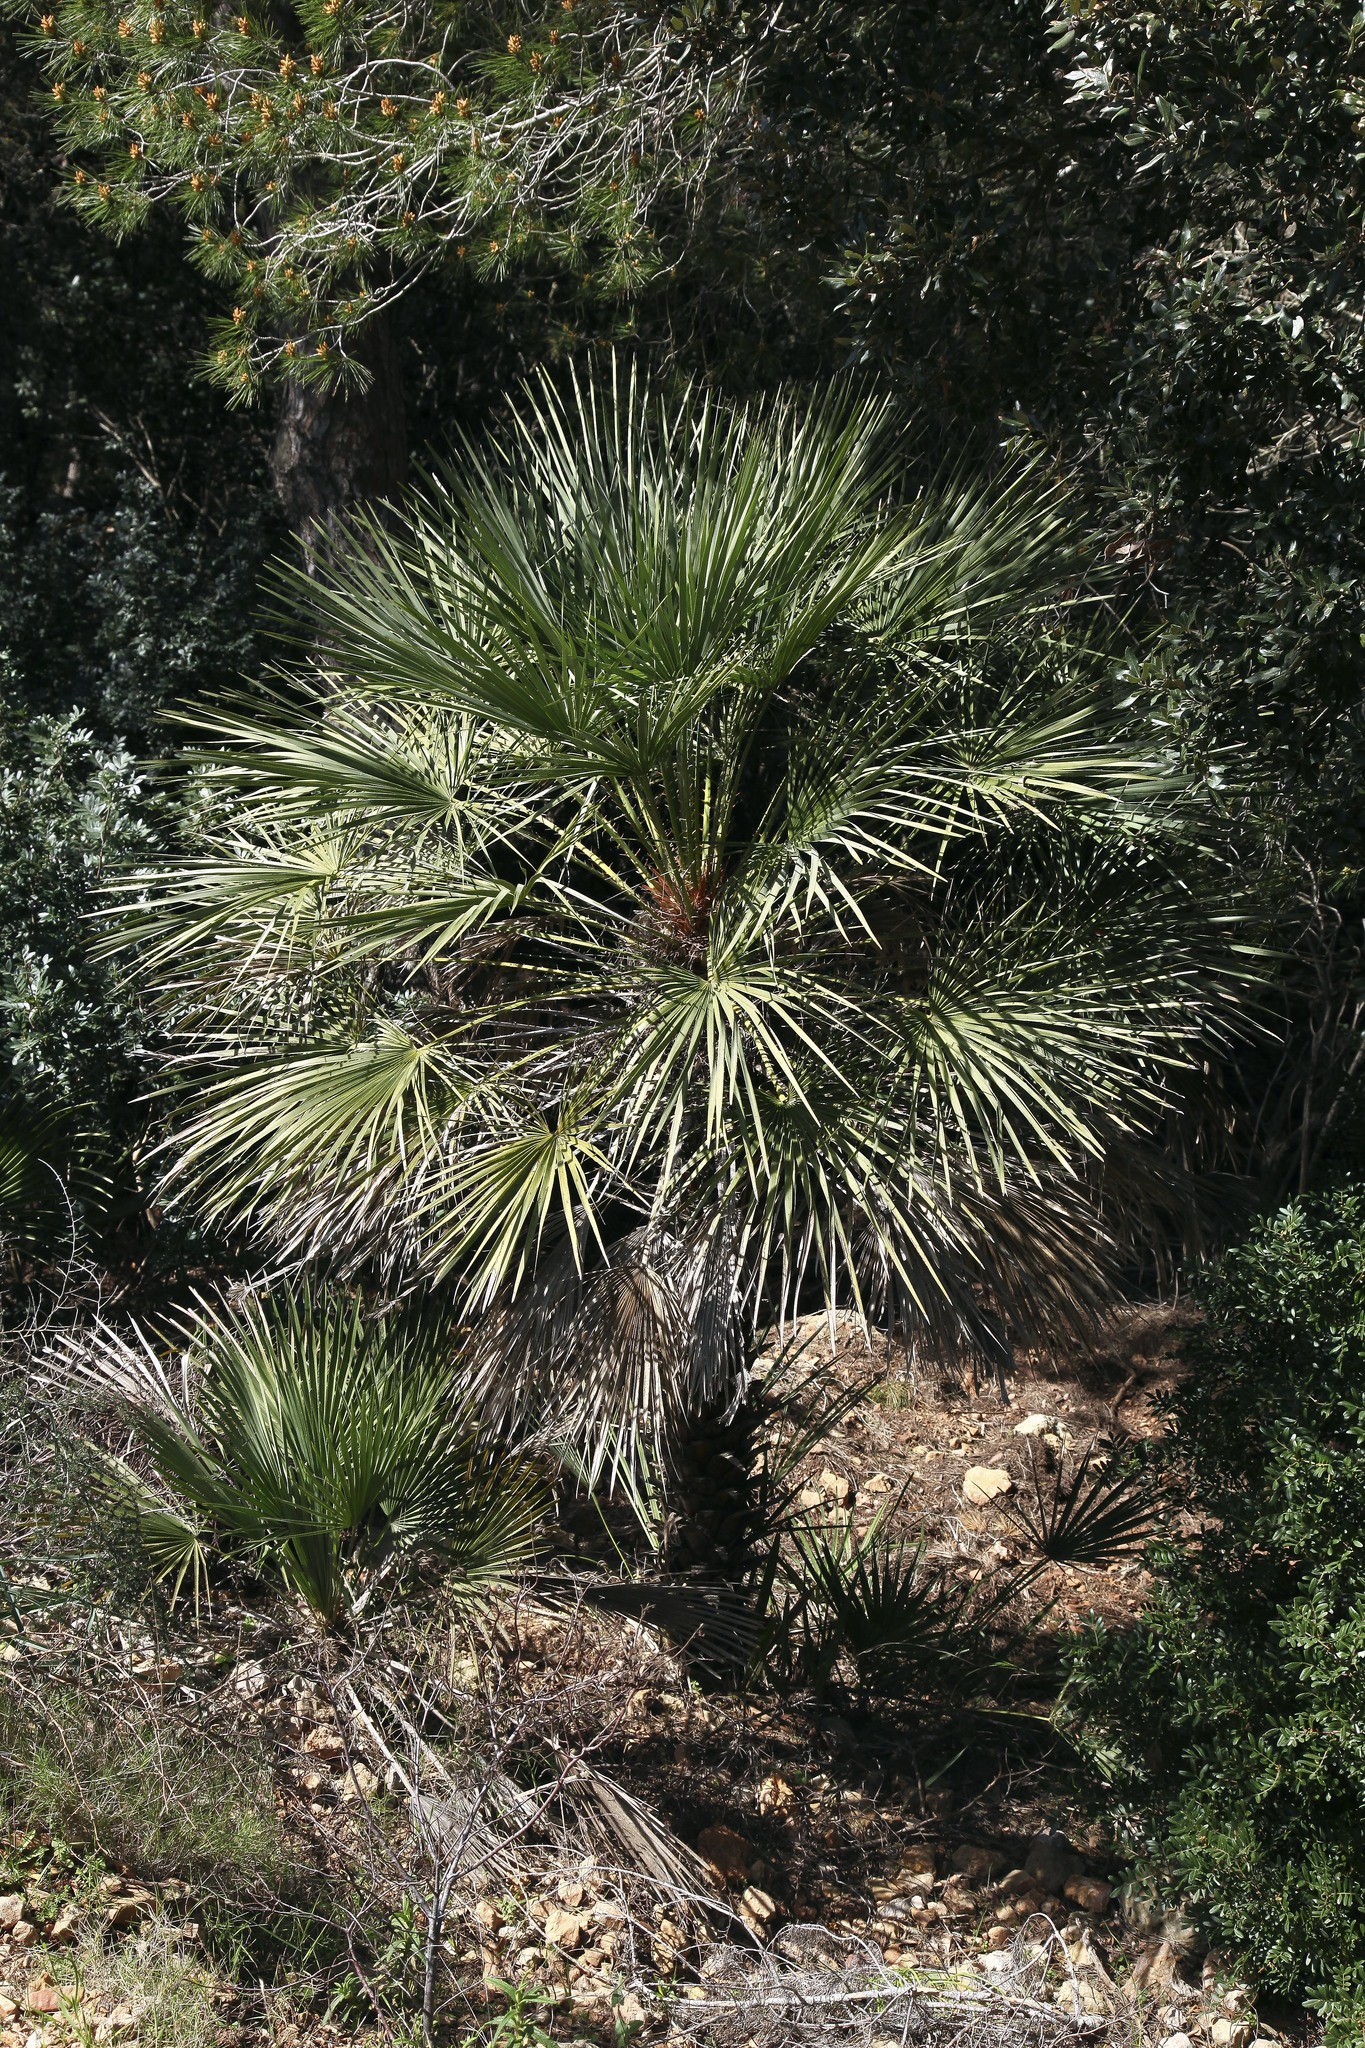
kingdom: Plantae
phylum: Tracheophyta
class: Liliopsida
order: Arecales
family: Arecaceae
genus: Chamaerops
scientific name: Chamaerops humilis
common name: Dwarf fan palm
